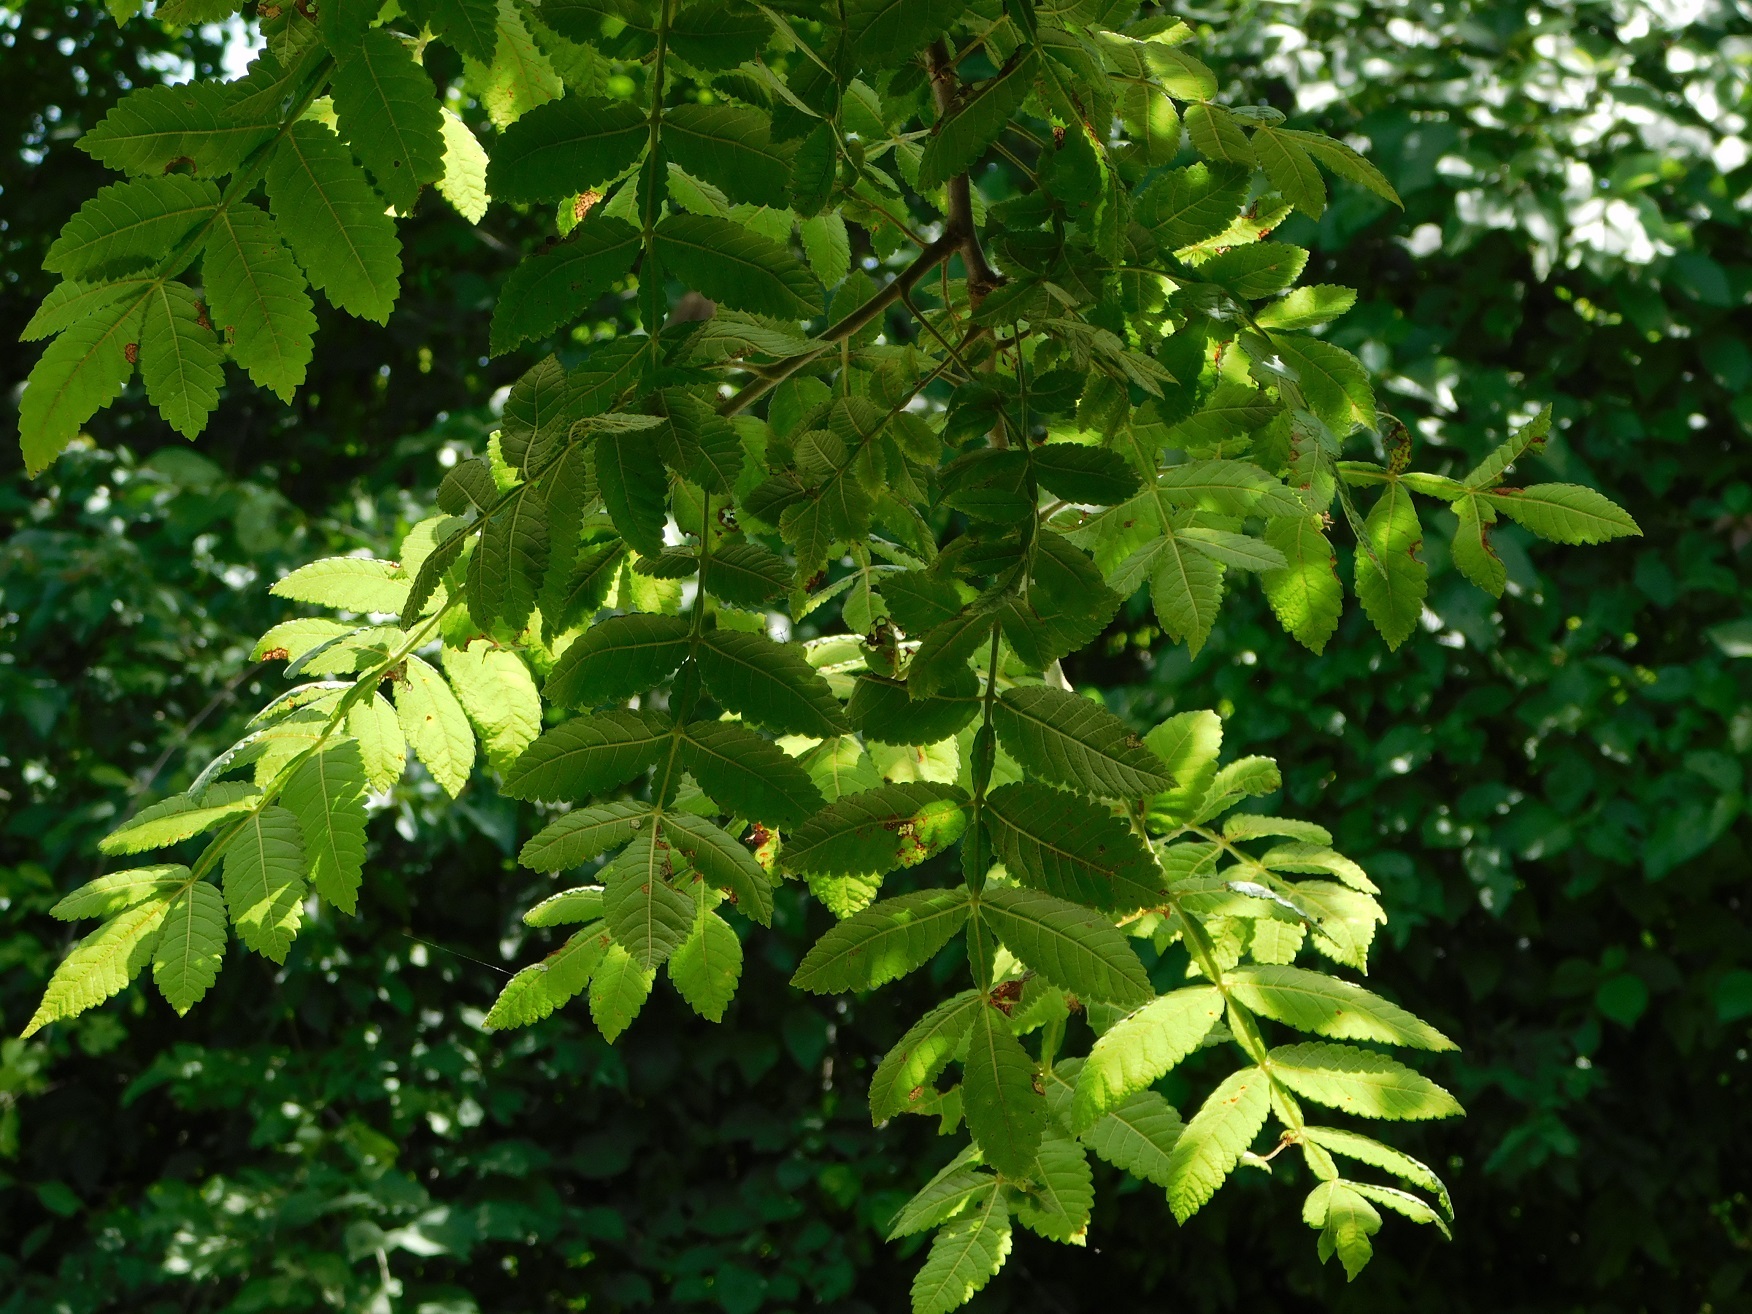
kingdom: Plantae
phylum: Tracheophyta
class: Magnoliopsida
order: Sapindales
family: Burseraceae
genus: Bursera
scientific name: Bursera excelsa
